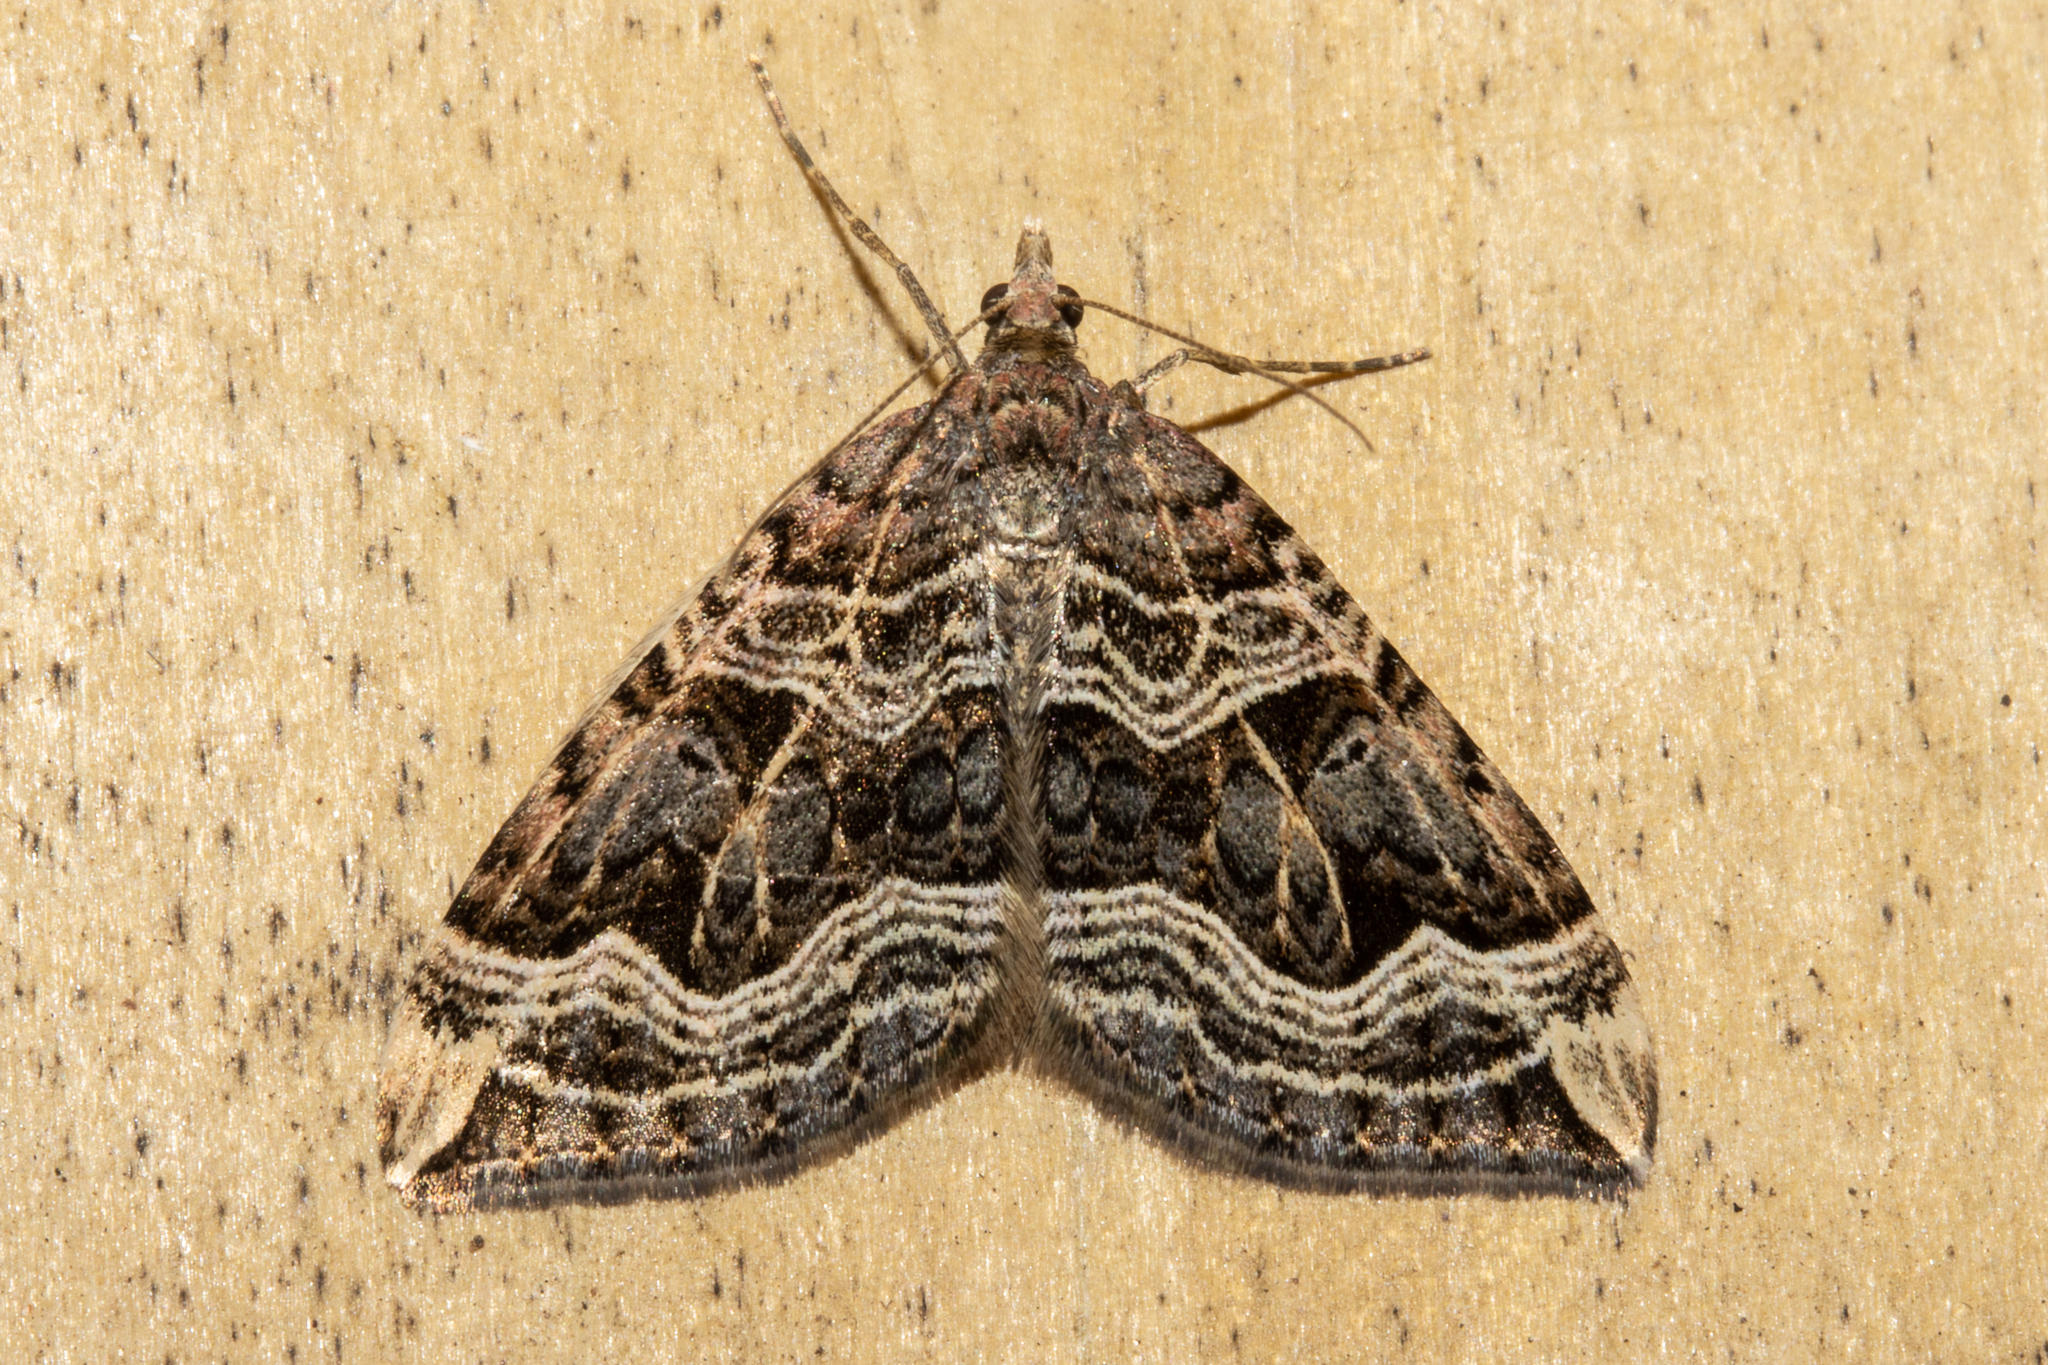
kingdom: Animalia
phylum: Arthropoda
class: Insecta
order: Lepidoptera
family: Geometridae
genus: Xanthorhoe
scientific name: Xanthorhoe semifissata
